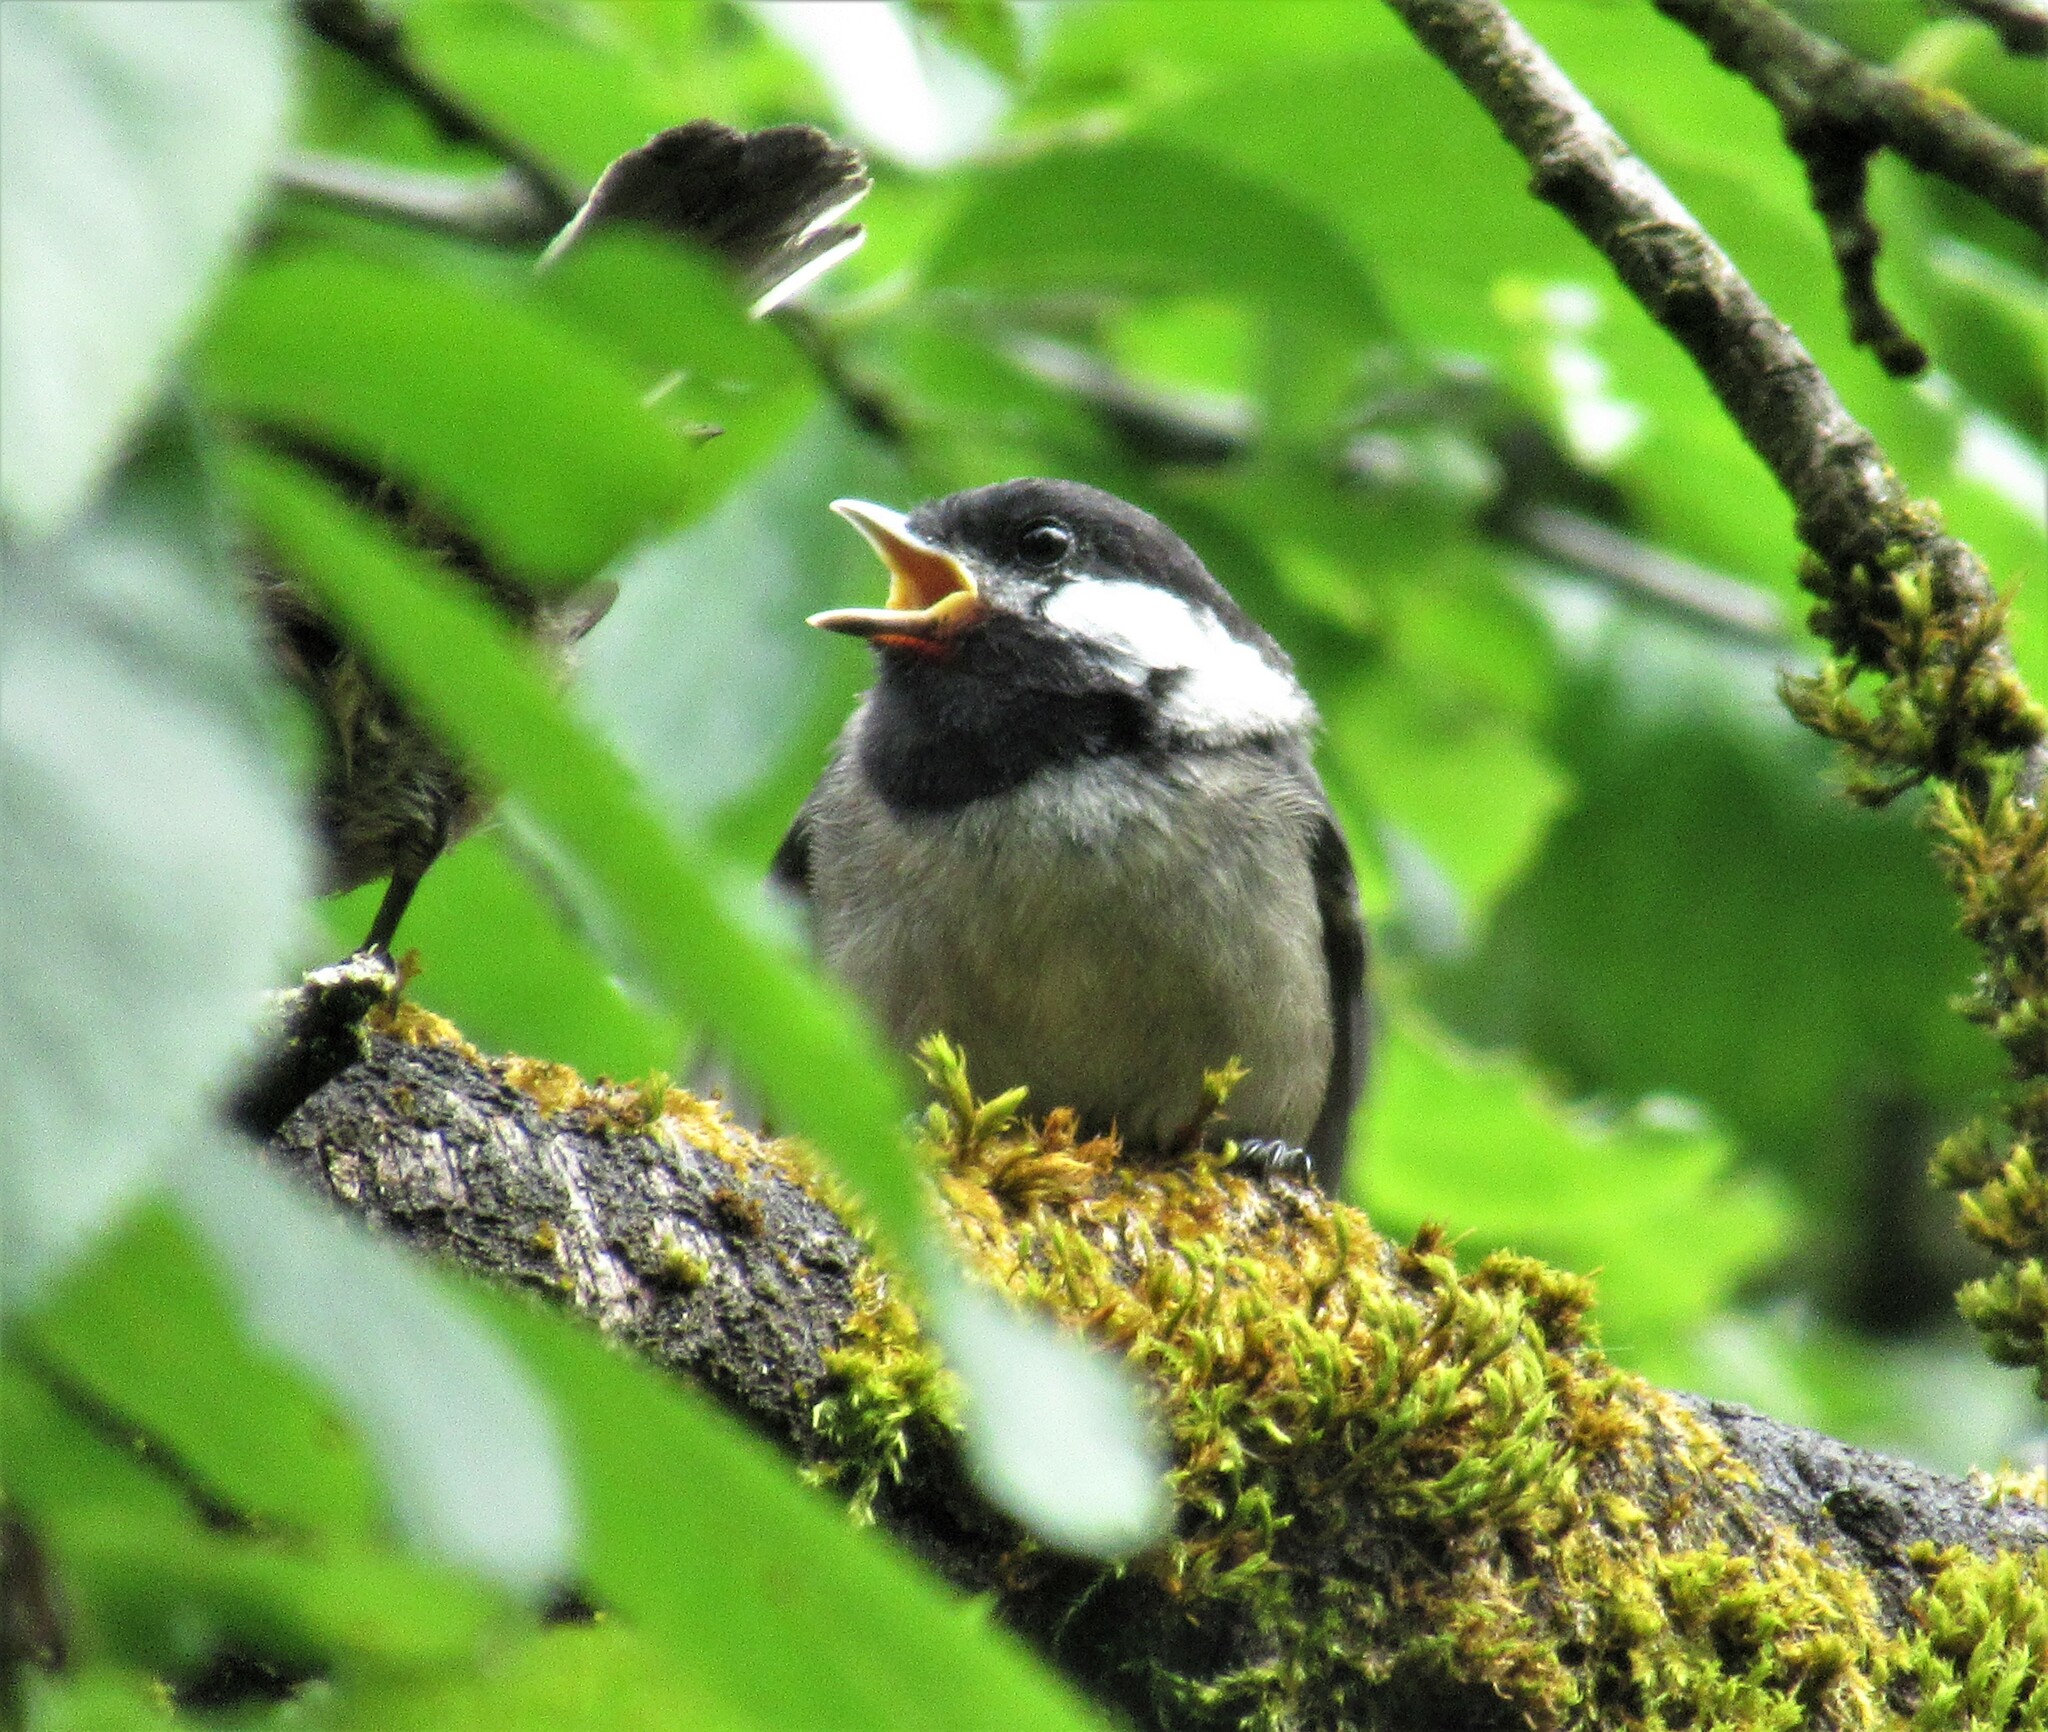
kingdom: Animalia
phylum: Chordata
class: Aves
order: Passeriformes
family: Paridae
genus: Poecile
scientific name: Poecile atricapillus
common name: Black-capped chickadee
